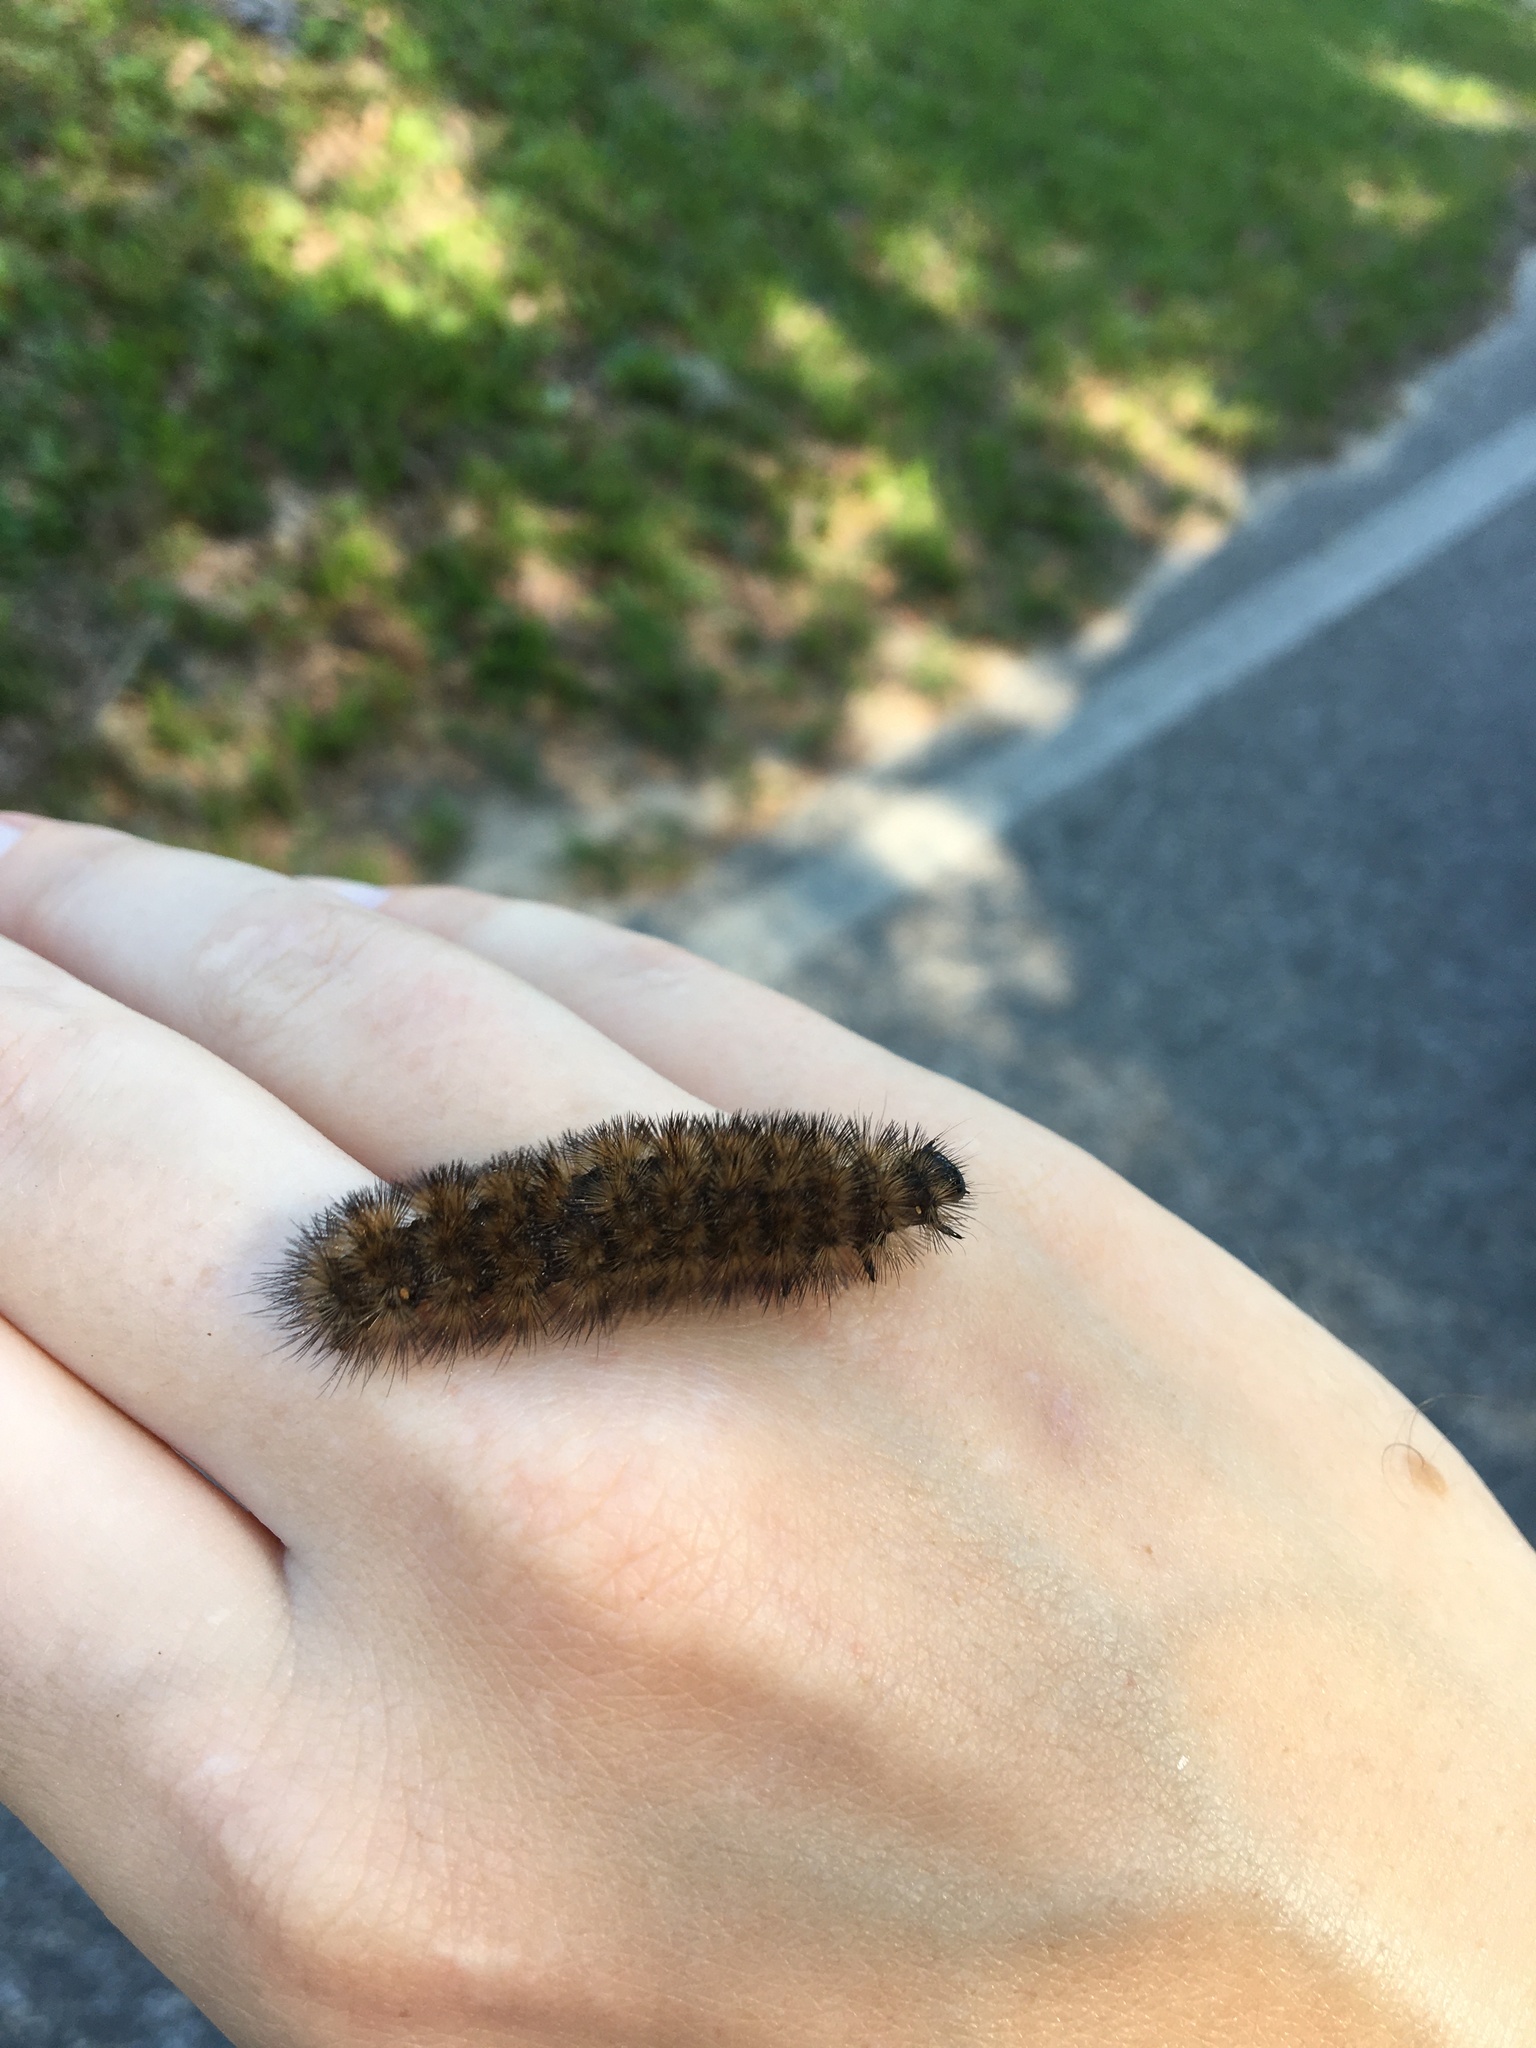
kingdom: Animalia
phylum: Arthropoda
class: Insecta
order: Lepidoptera
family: Erebidae
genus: Pyrrharctia
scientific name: Pyrrharctia isabella
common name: Isabella tiger moth
